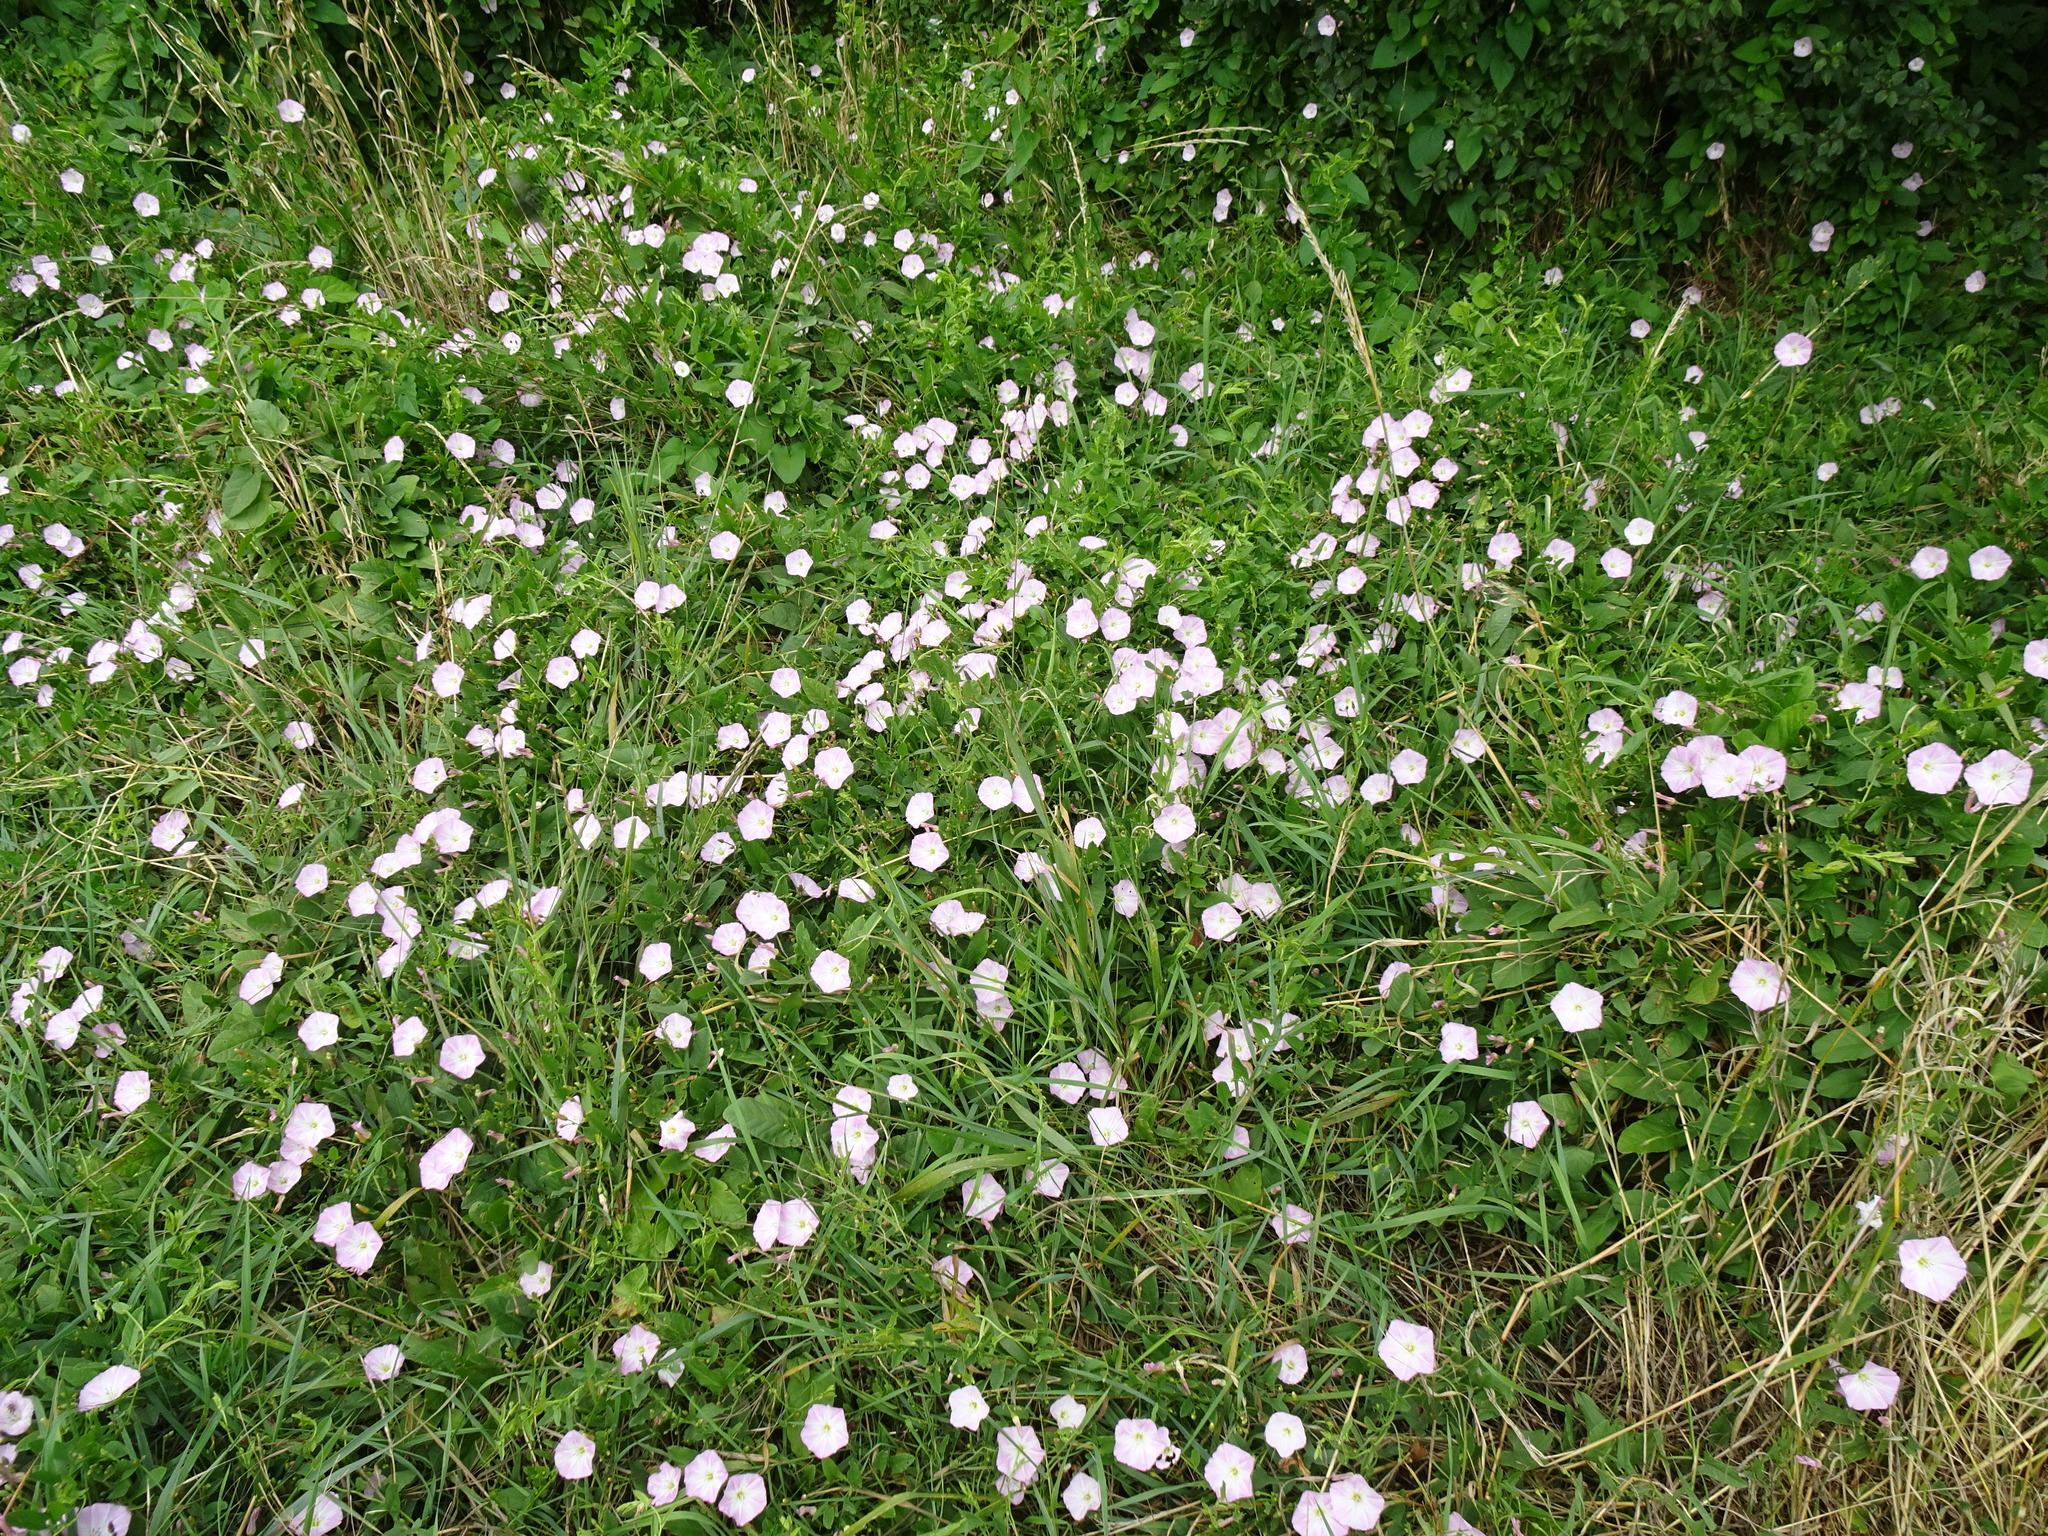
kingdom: Plantae
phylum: Tracheophyta
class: Magnoliopsida
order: Solanales
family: Convolvulaceae
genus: Convolvulus
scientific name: Convolvulus arvensis
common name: Field bindweed
